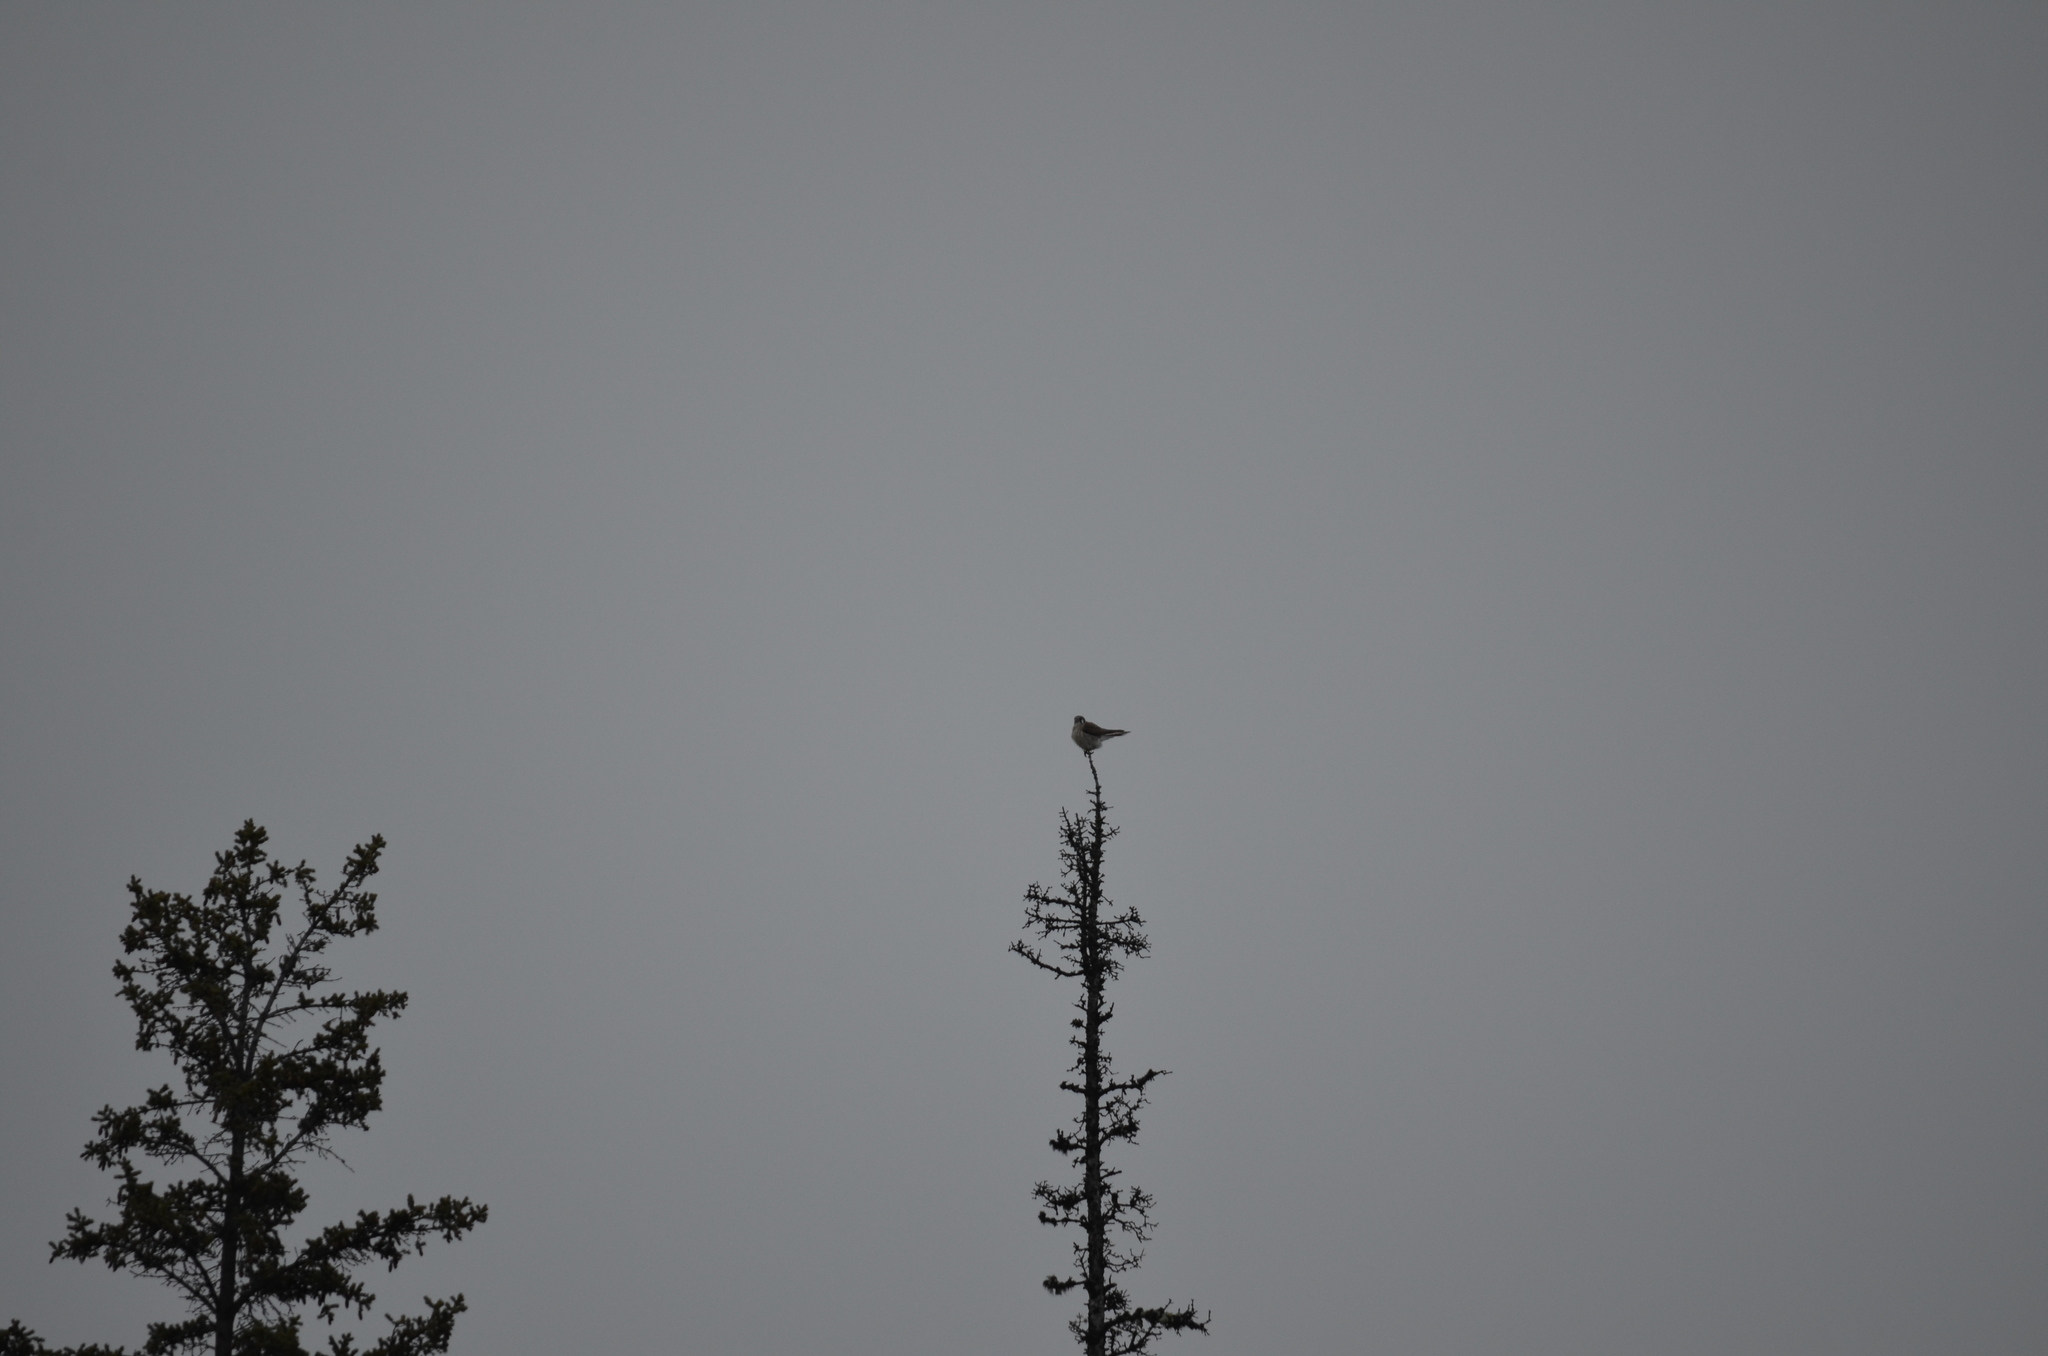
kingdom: Animalia
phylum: Chordata
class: Aves
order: Falconiformes
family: Falconidae
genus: Falco
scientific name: Falco sparverius
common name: American kestrel
